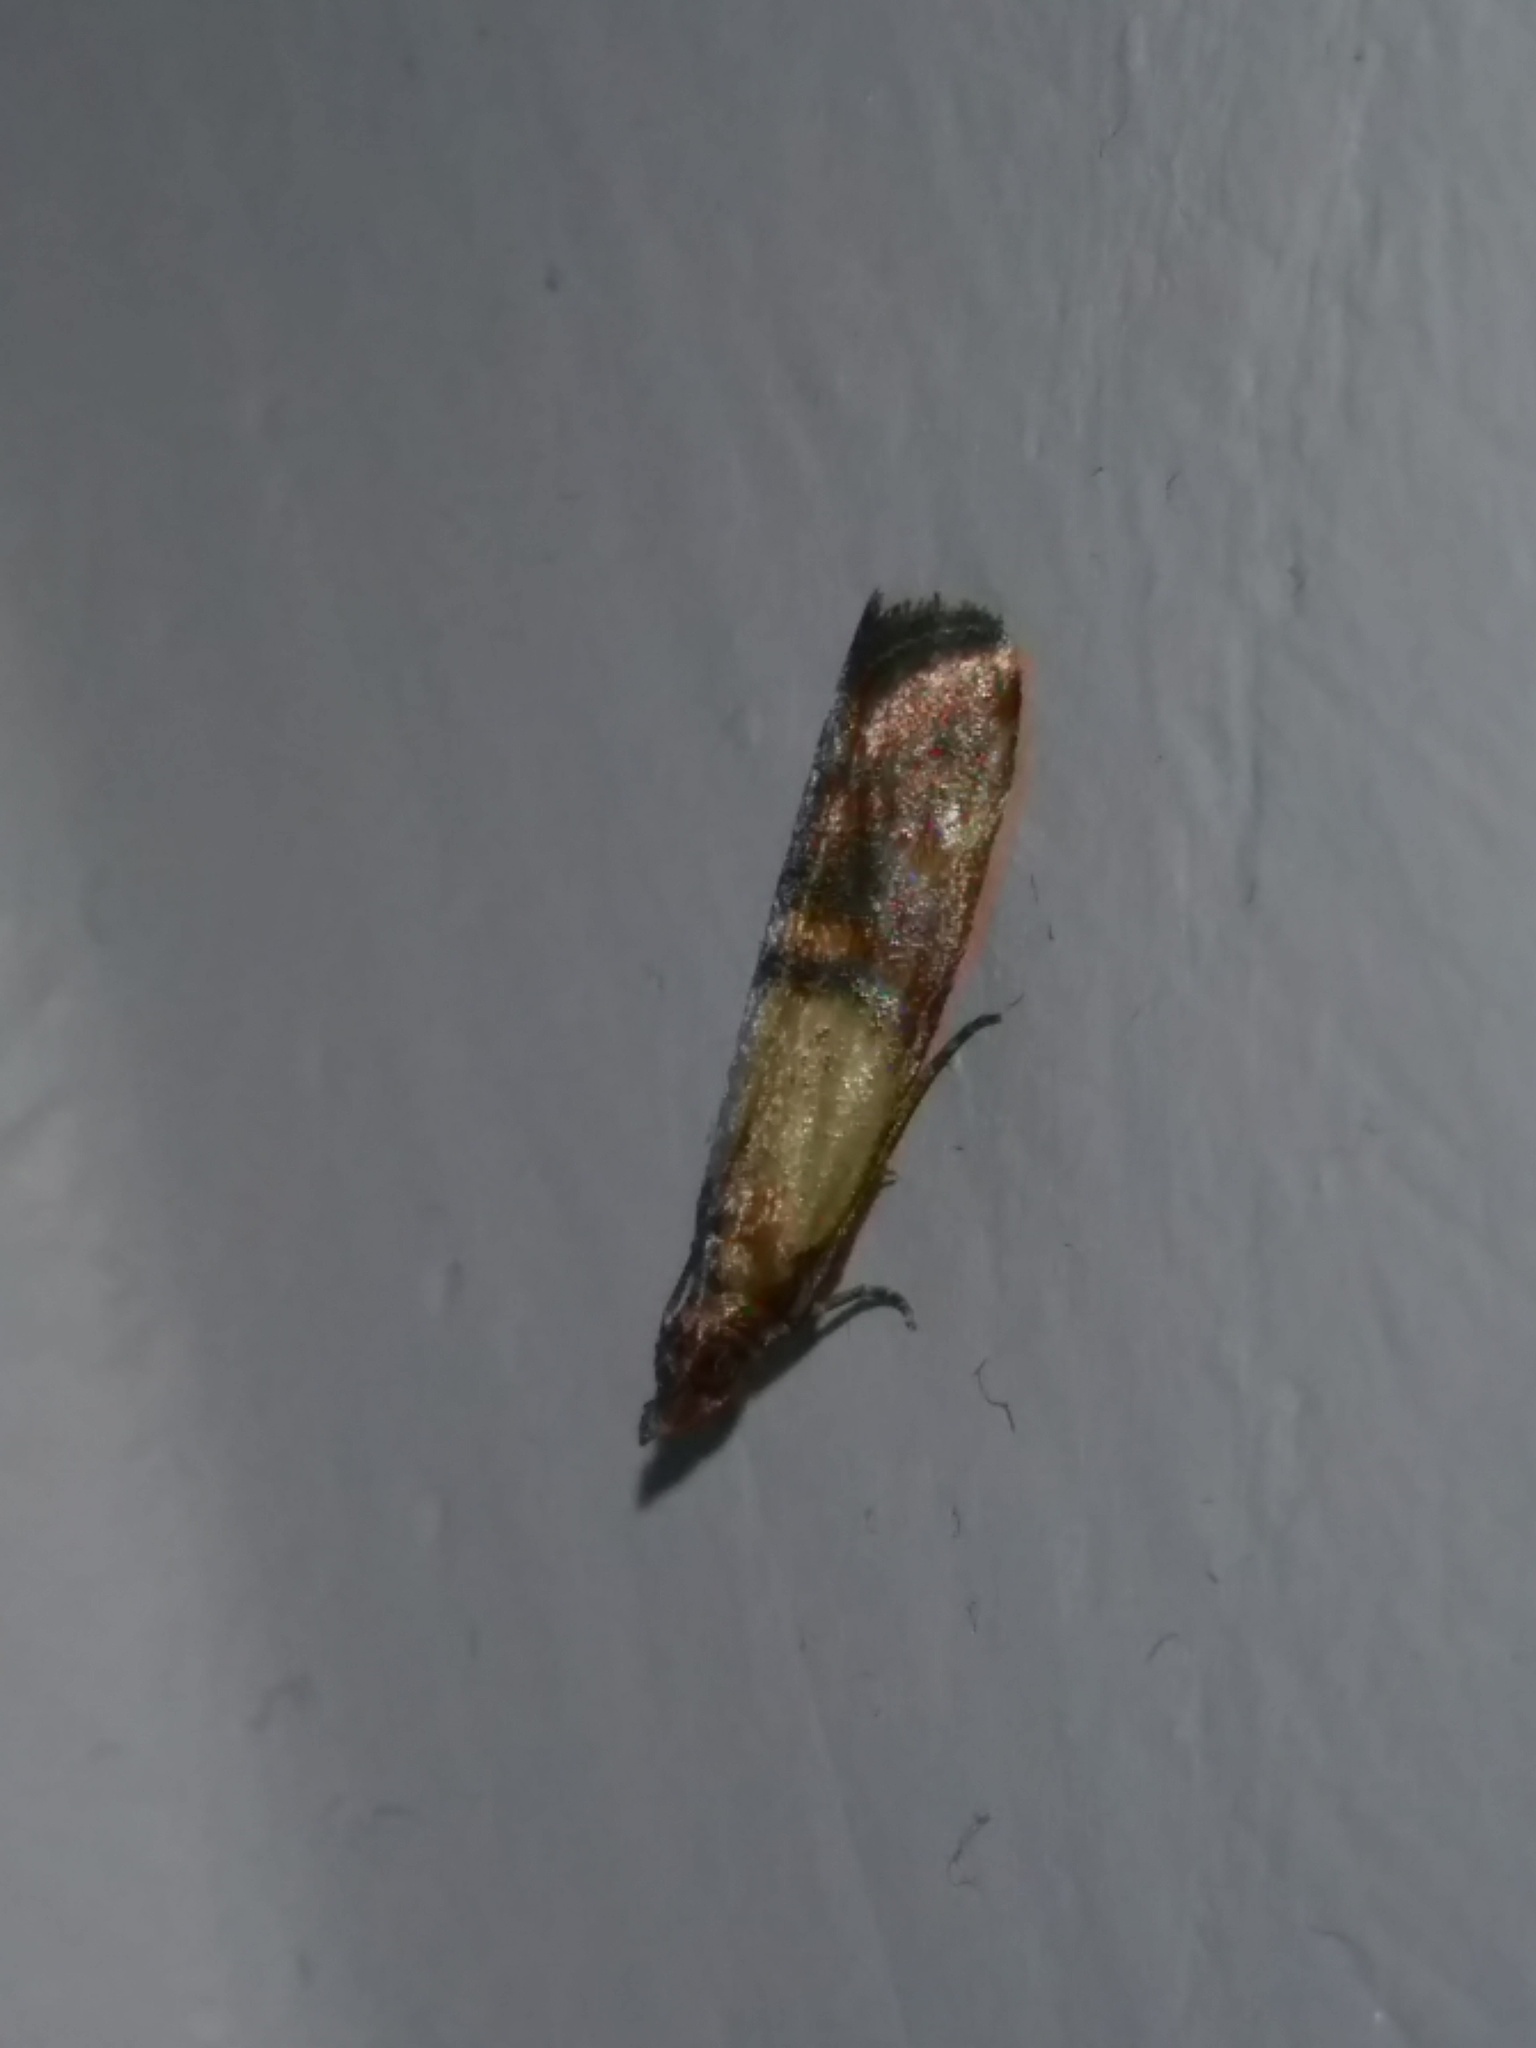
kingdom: Animalia
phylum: Arthropoda
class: Insecta
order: Lepidoptera
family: Pyralidae
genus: Plodia
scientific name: Plodia interpunctella
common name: Indian meal moth
